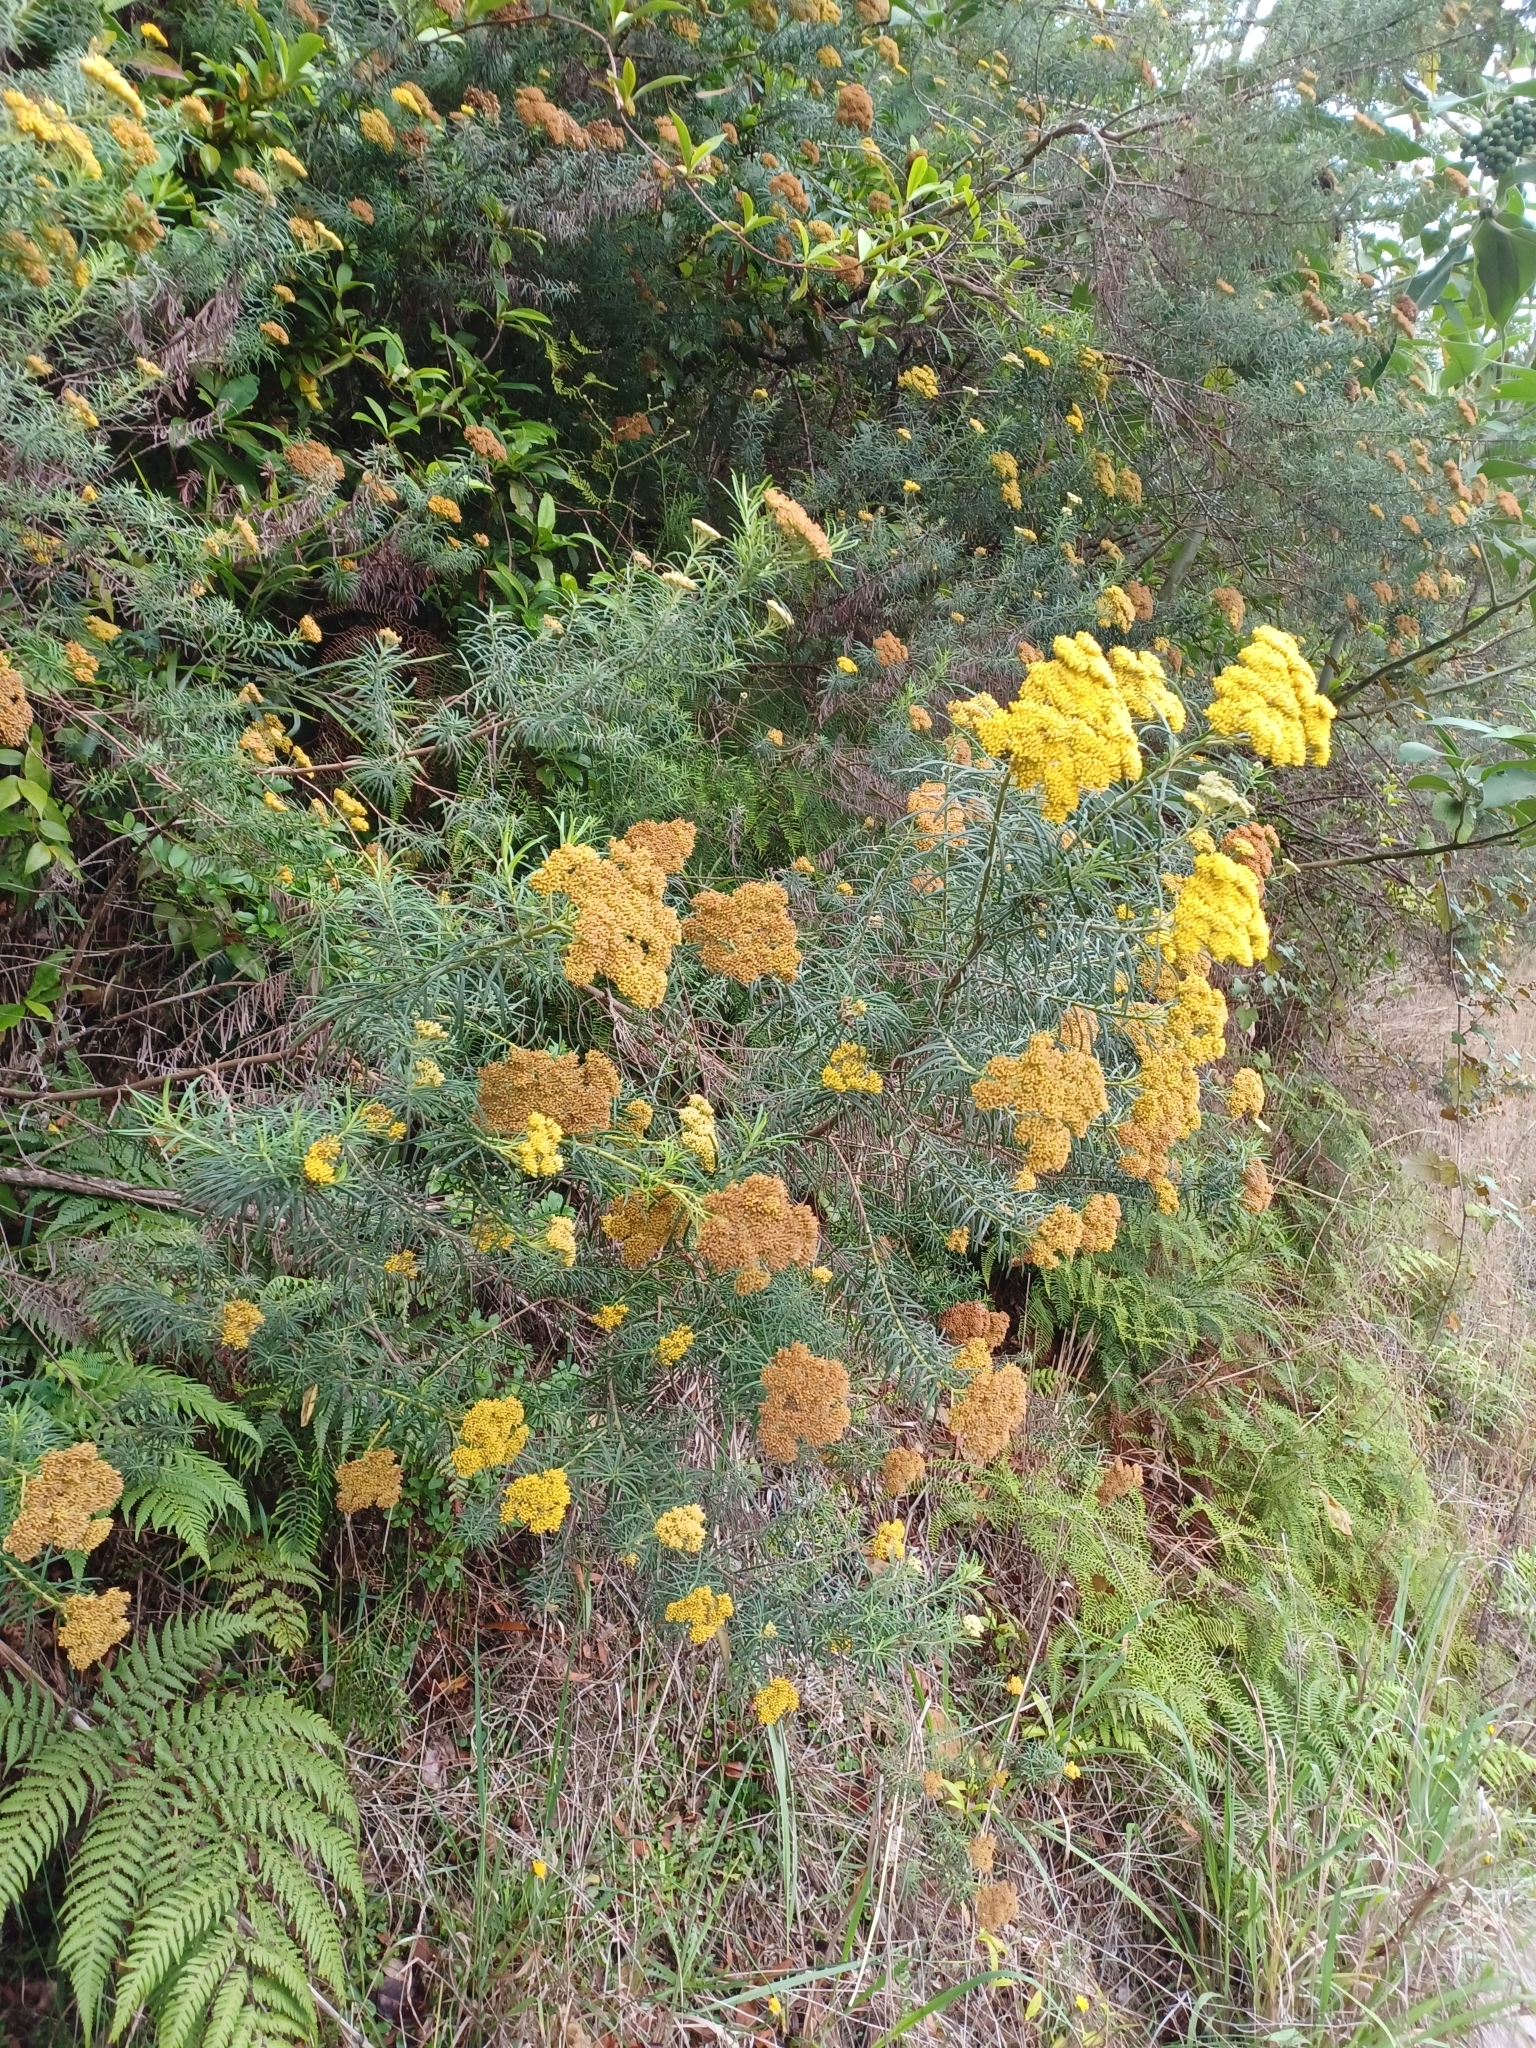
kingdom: Plantae
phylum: Tracheophyta
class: Magnoliopsida
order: Asterales
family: Asteraceae
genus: Cassinia
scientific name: Cassinia telfordii
